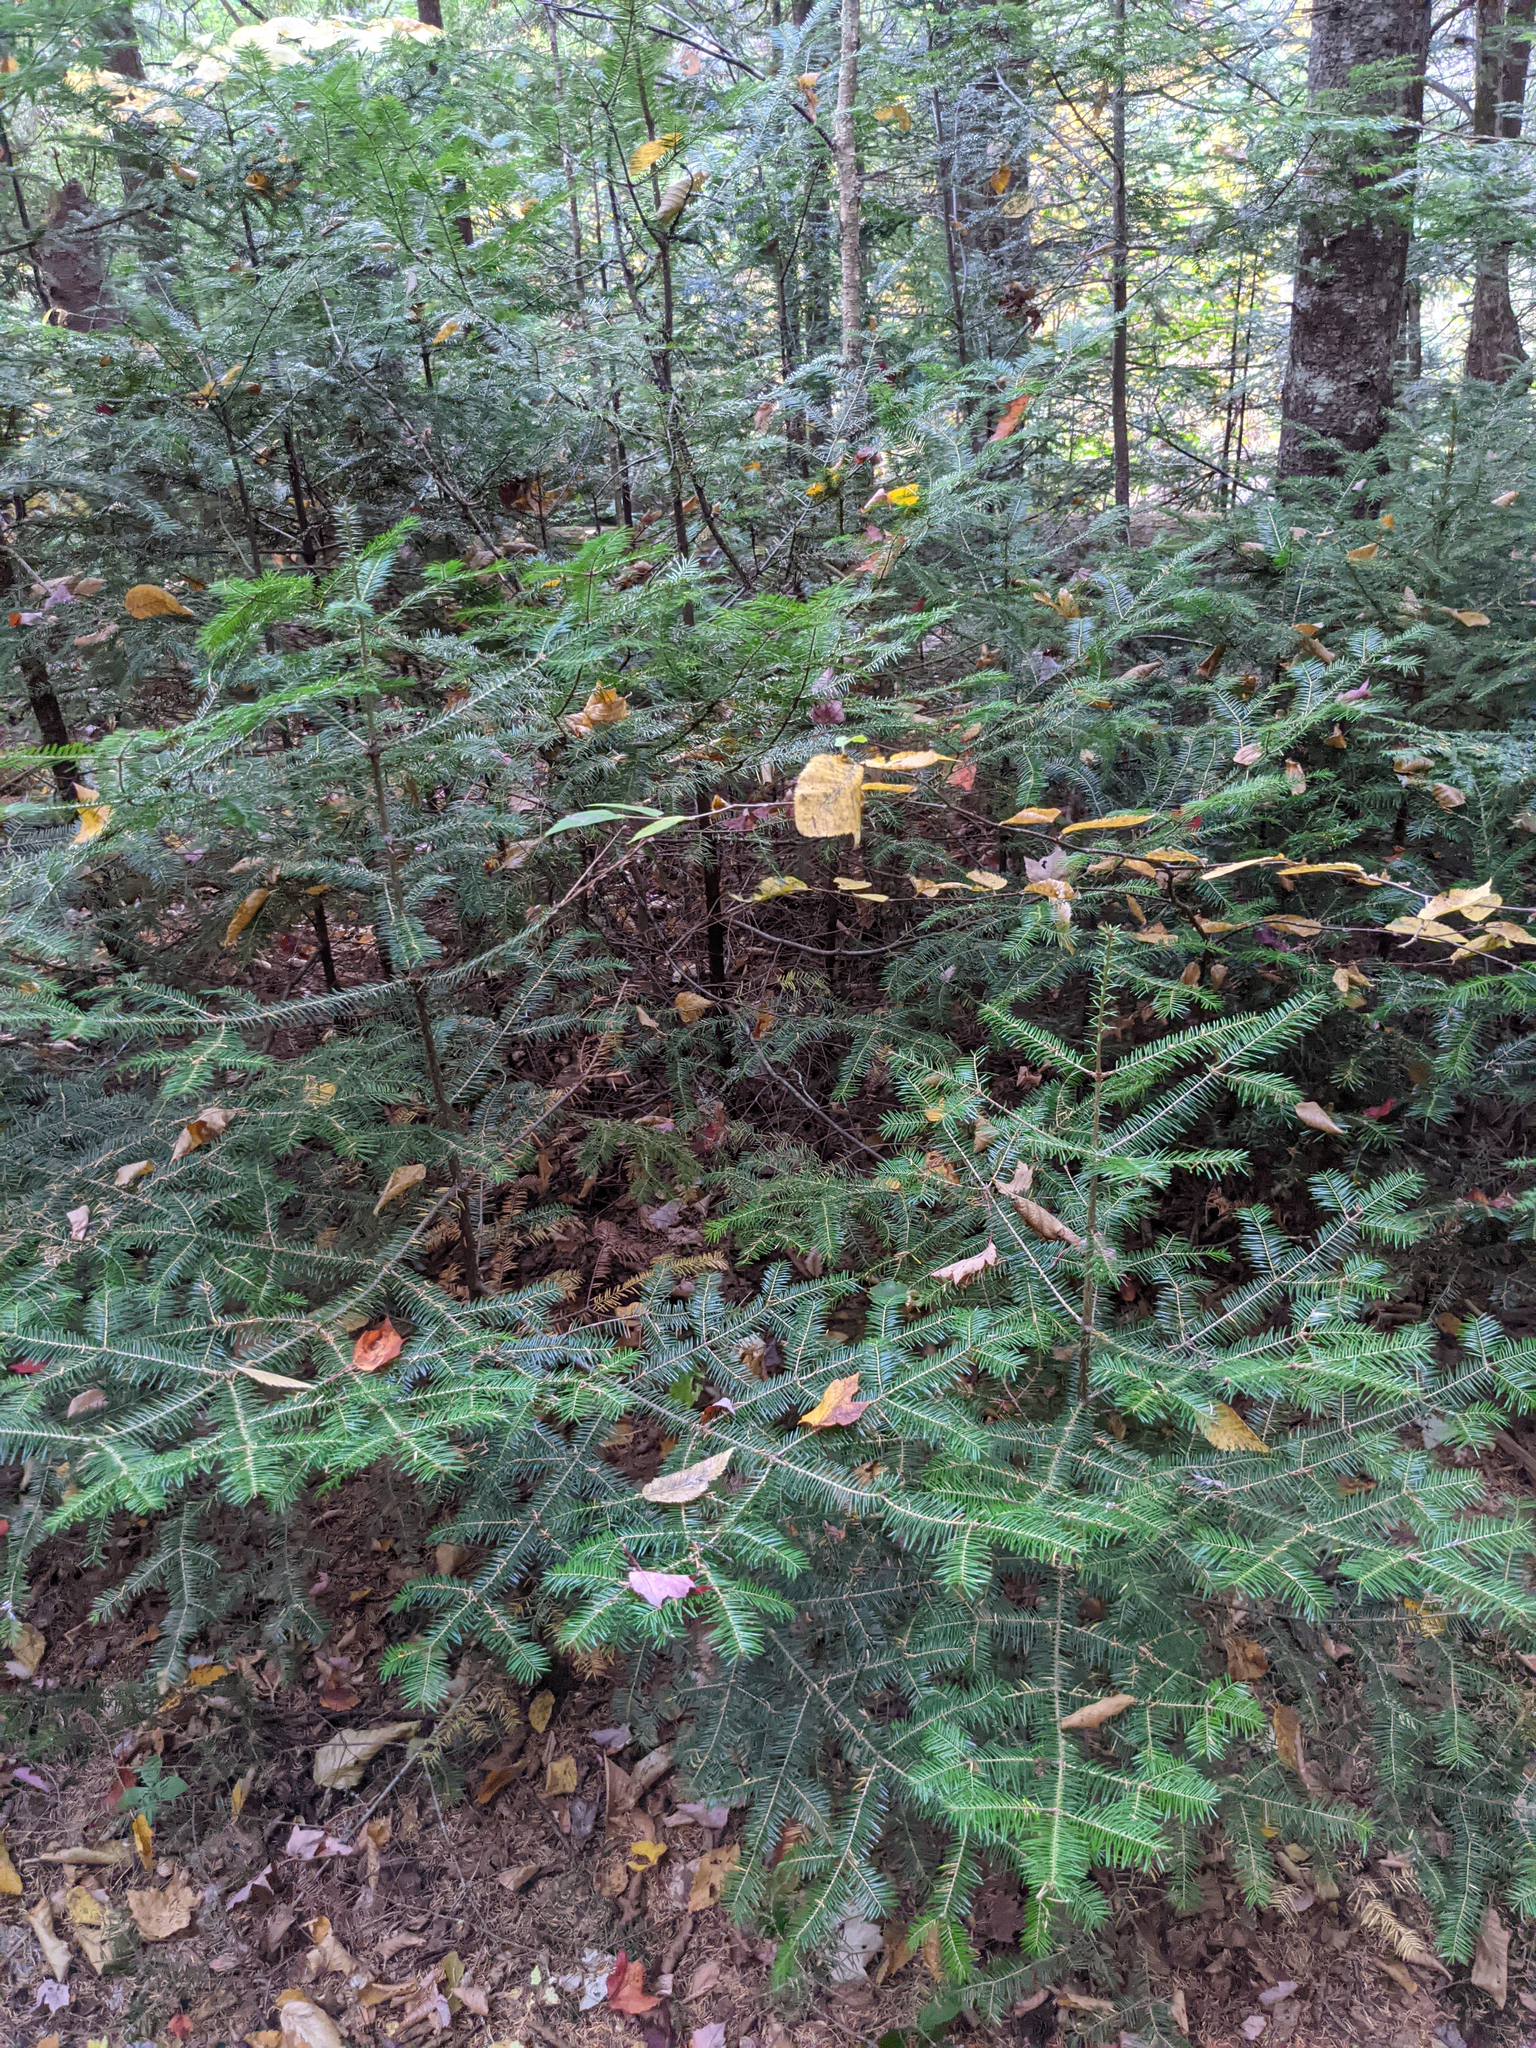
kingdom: Plantae
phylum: Tracheophyta
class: Pinopsida
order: Pinales
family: Pinaceae
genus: Abies
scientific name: Abies balsamea
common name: Balsam fir
